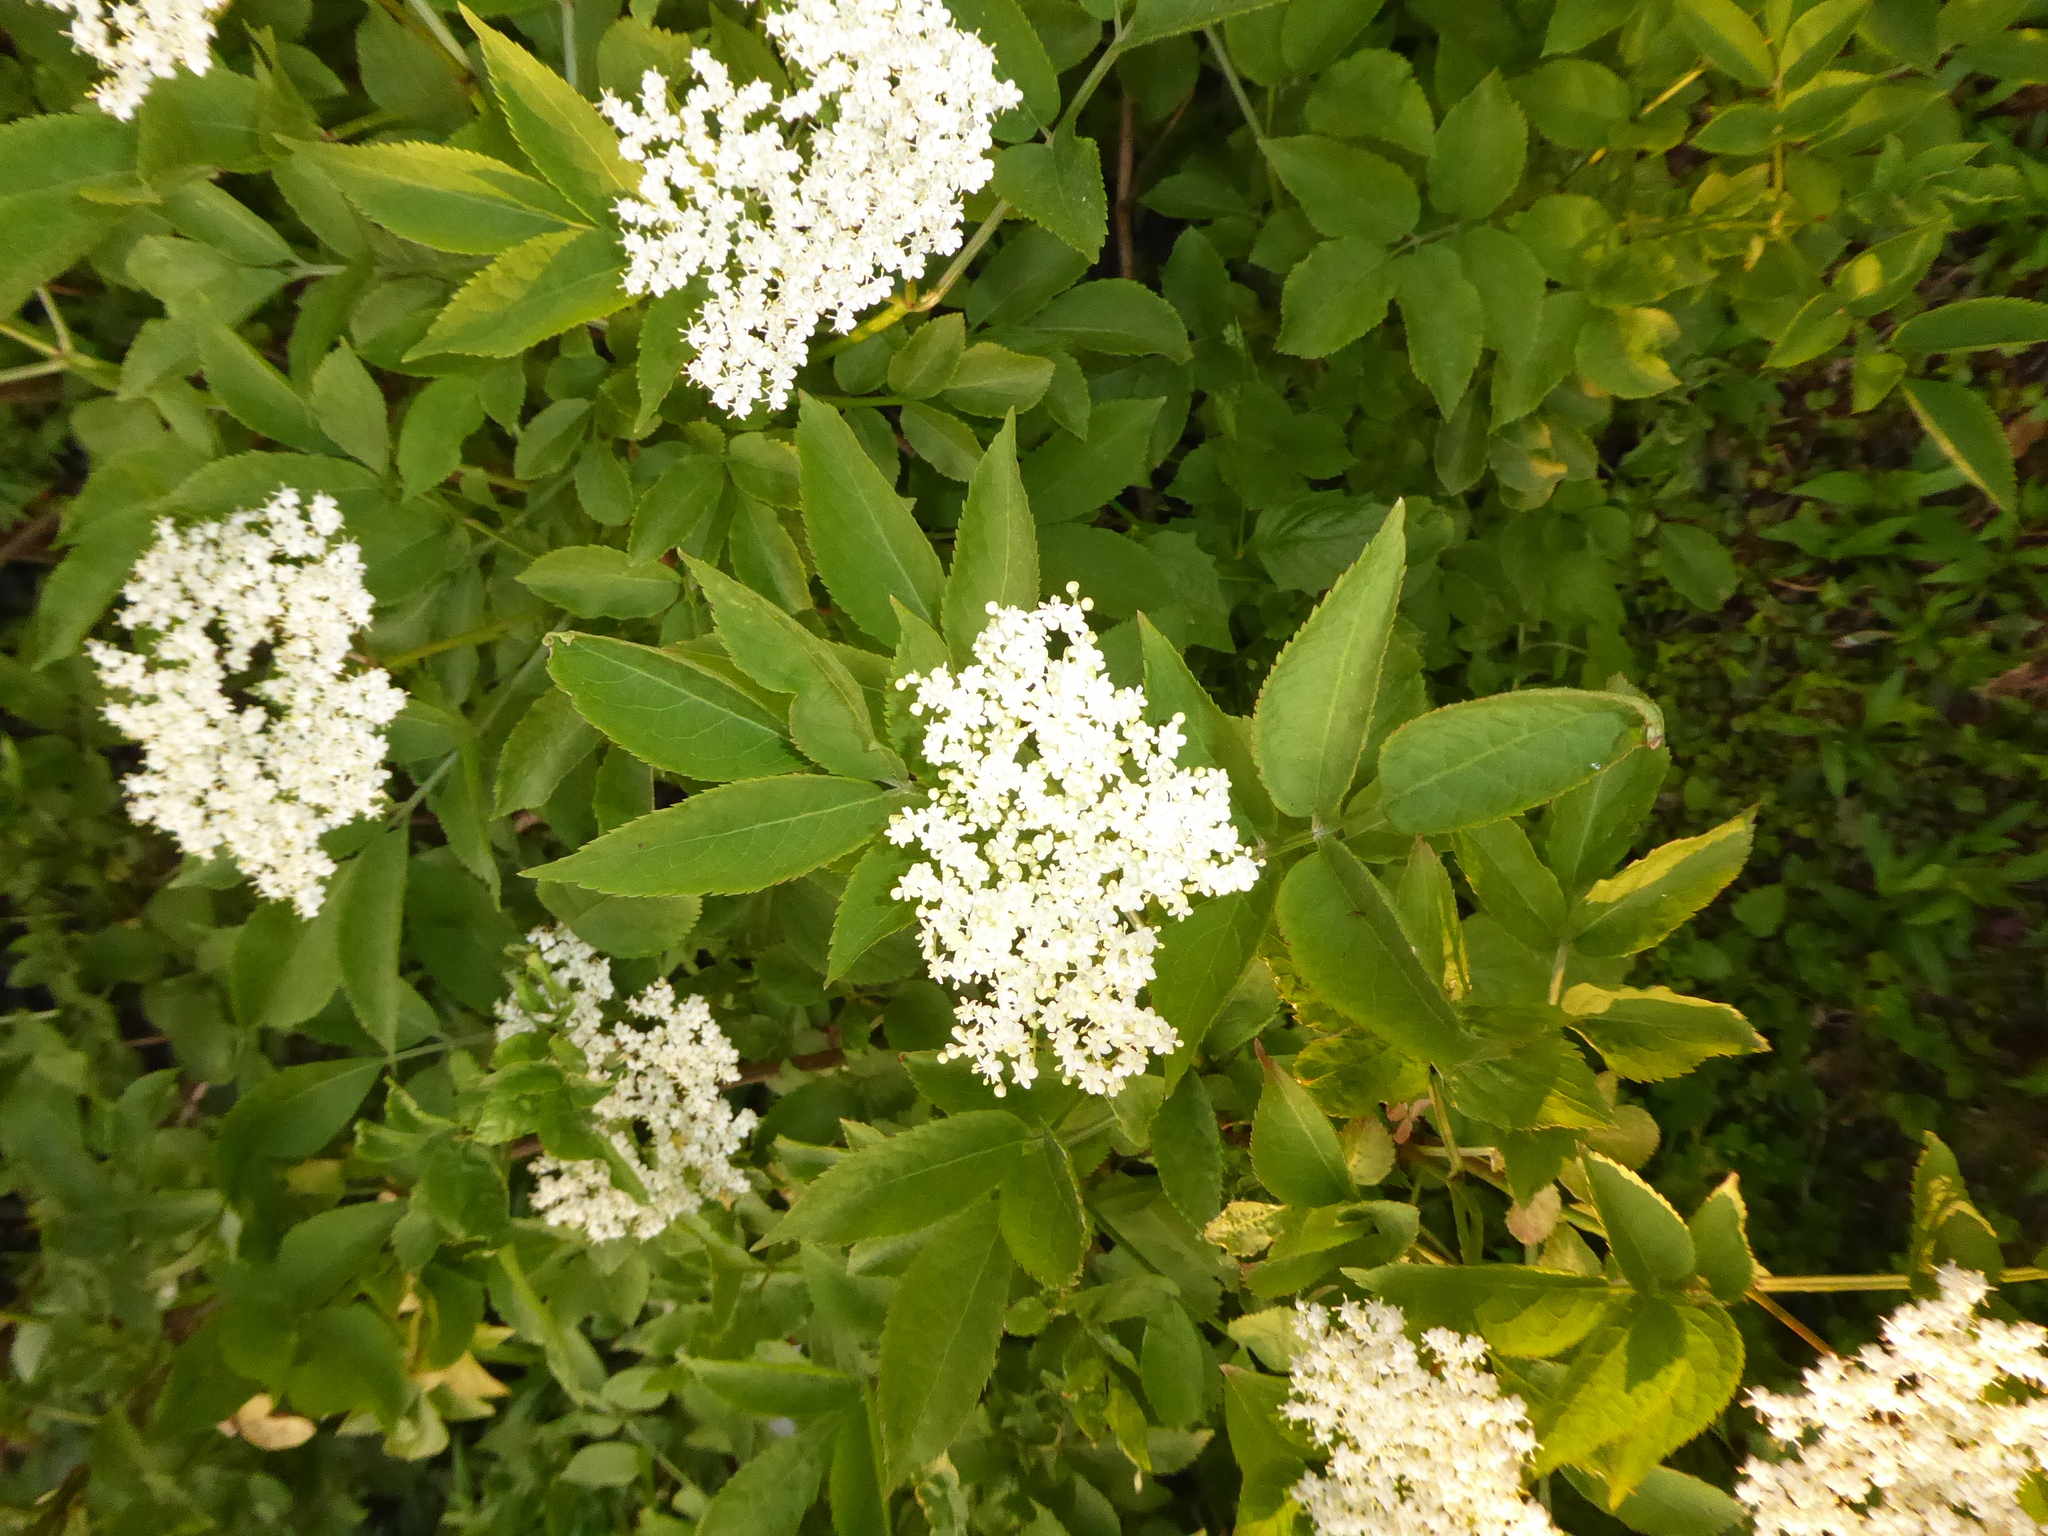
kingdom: Plantae
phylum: Tracheophyta
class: Magnoliopsida
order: Dipsacales
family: Viburnaceae
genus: Sambucus
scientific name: Sambucus nigra
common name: Elder
